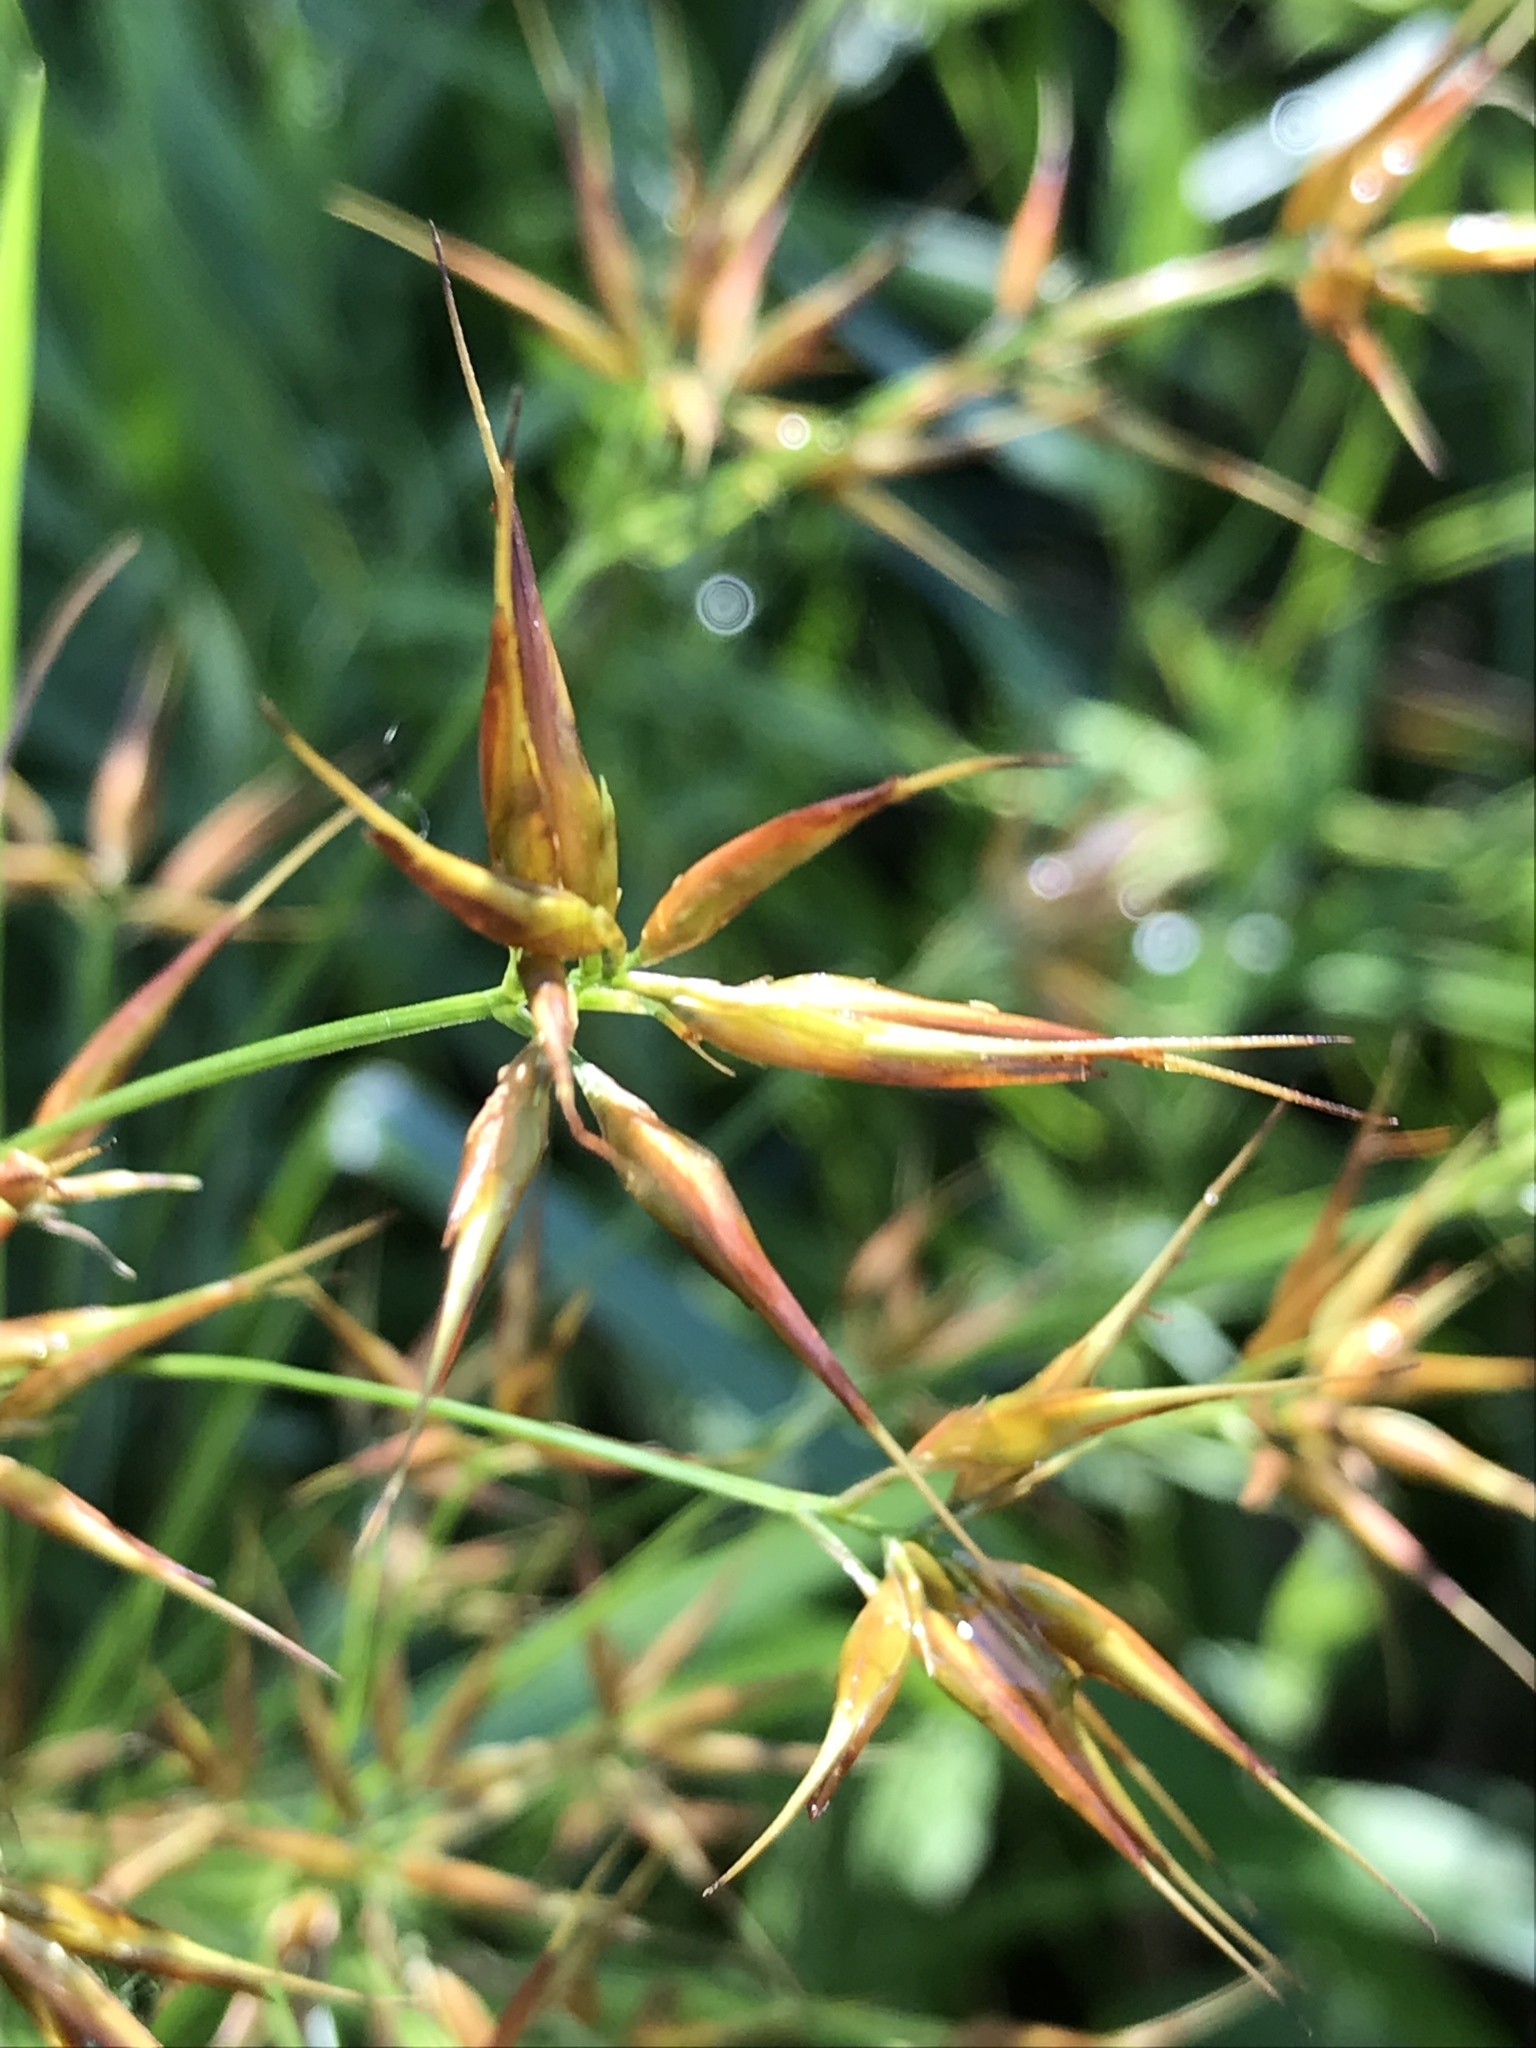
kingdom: Plantae
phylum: Tracheophyta
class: Liliopsida
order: Poales
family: Cyperaceae
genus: Rhynchospora
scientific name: Rhynchospora corniculata
